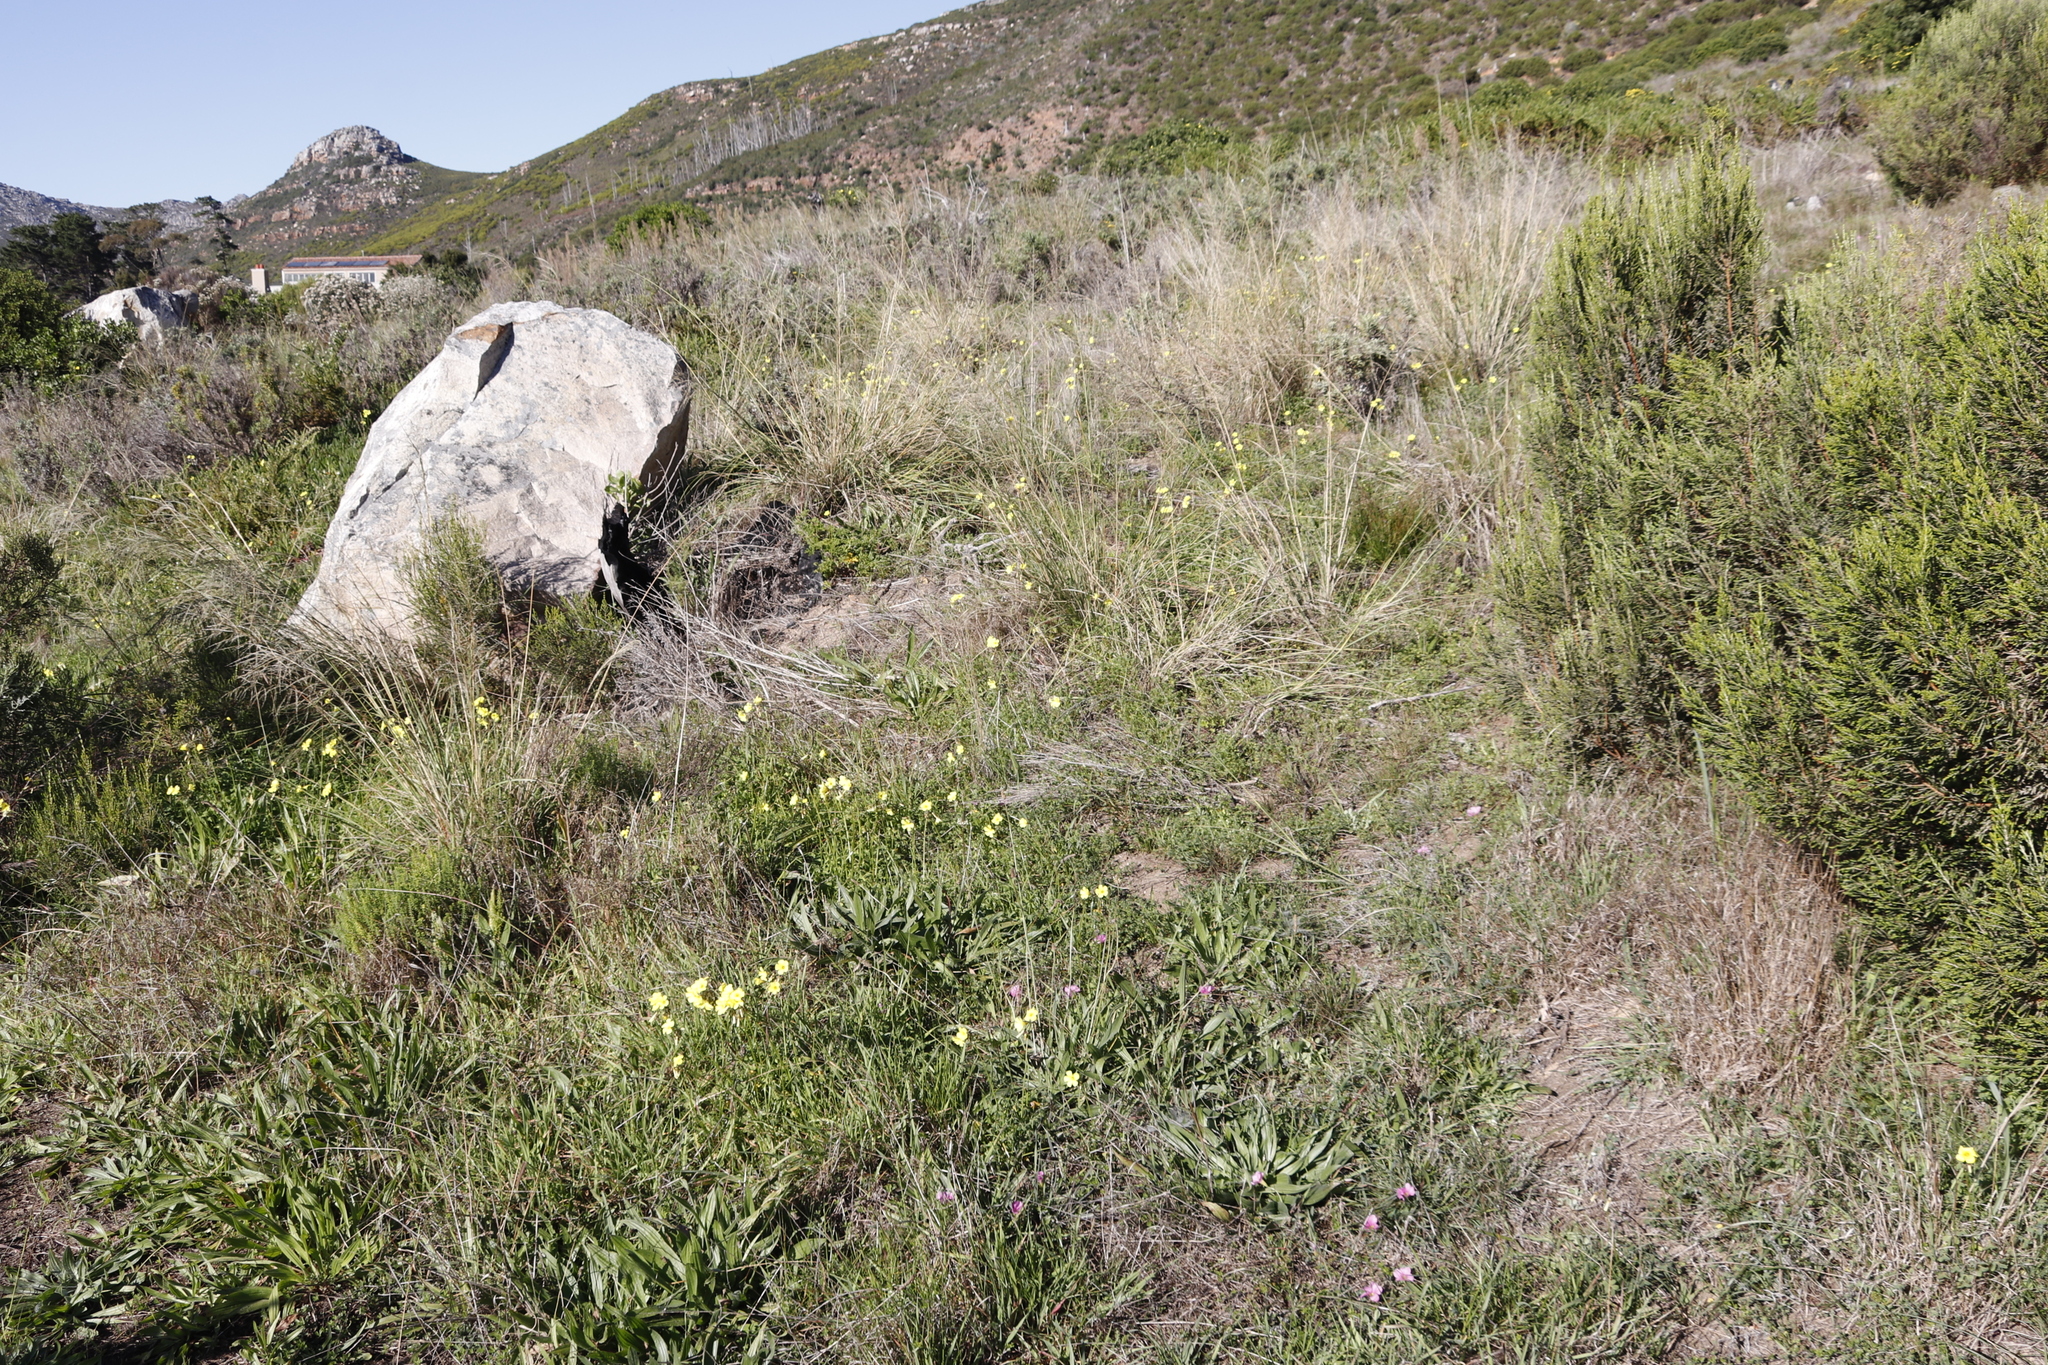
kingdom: Plantae
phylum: Tracheophyta
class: Magnoliopsida
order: Oxalidales
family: Oxalidaceae
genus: Oxalis
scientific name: Oxalis pes-caprae
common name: Bermuda-buttercup
